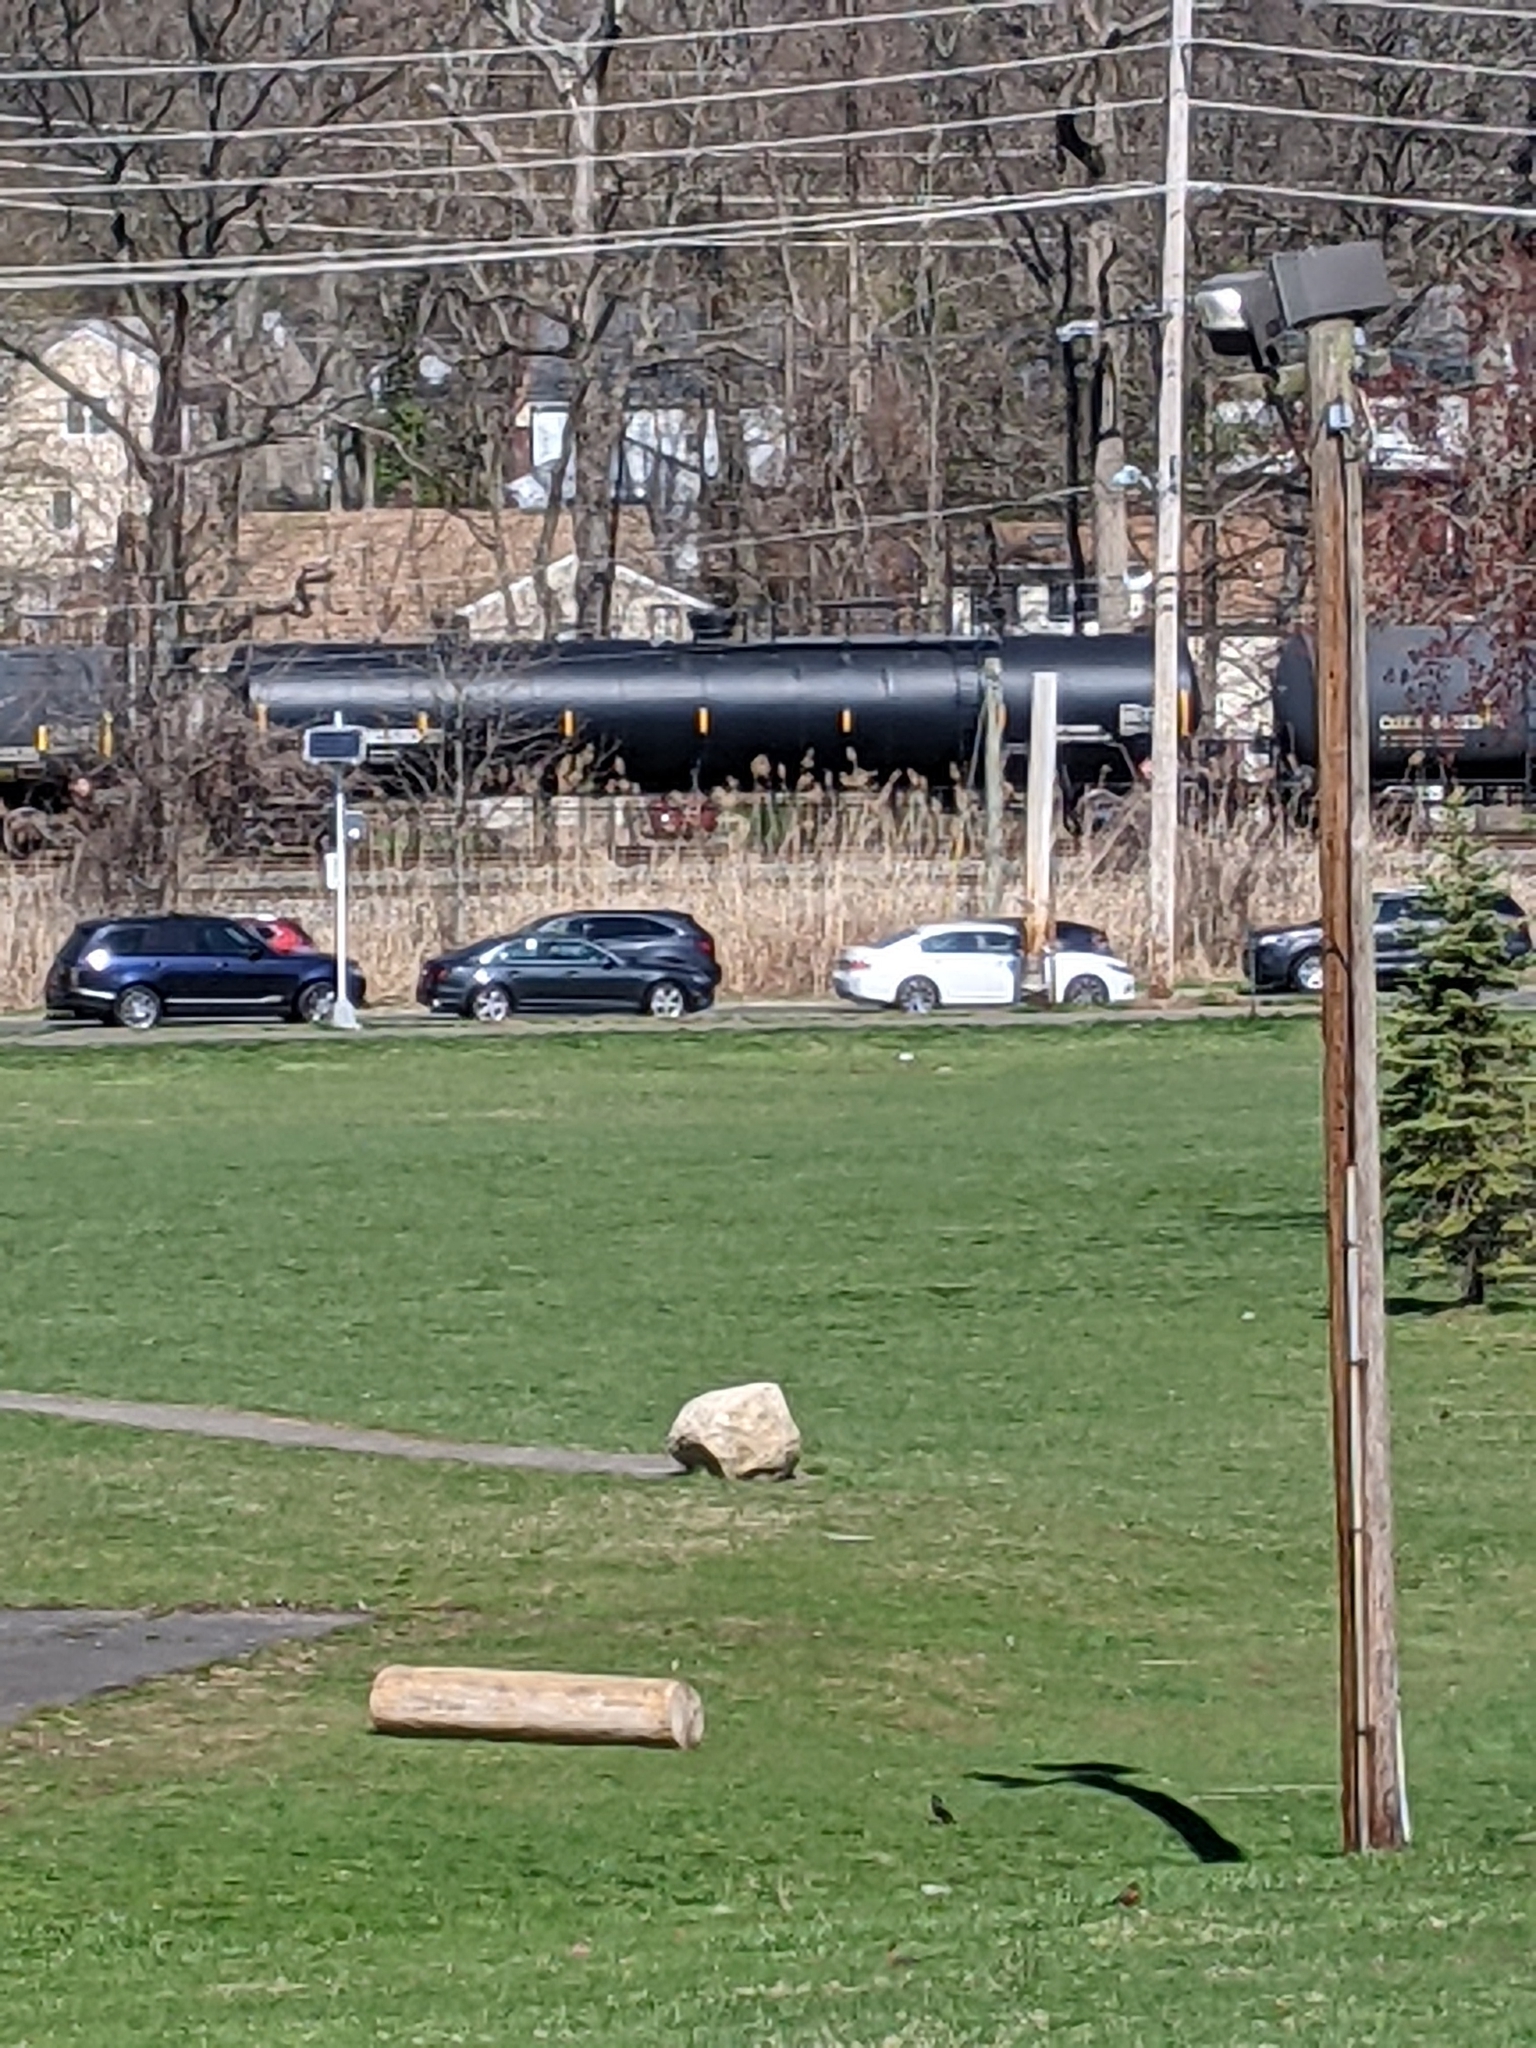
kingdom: Plantae
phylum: Tracheophyta
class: Liliopsida
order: Poales
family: Poaceae
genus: Phragmites
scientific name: Phragmites australis
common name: Common reed
